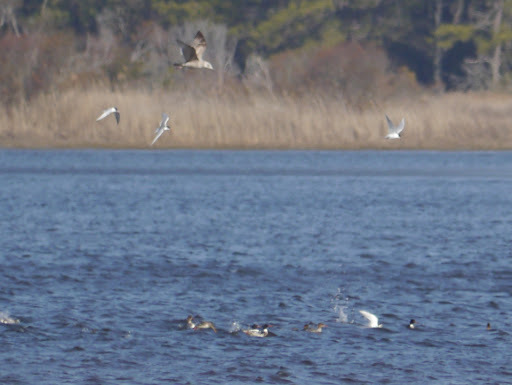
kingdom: Animalia
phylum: Chordata
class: Aves
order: Anseriformes
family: Anatidae
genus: Mergus
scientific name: Mergus serrator
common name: Red-breasted merganser
